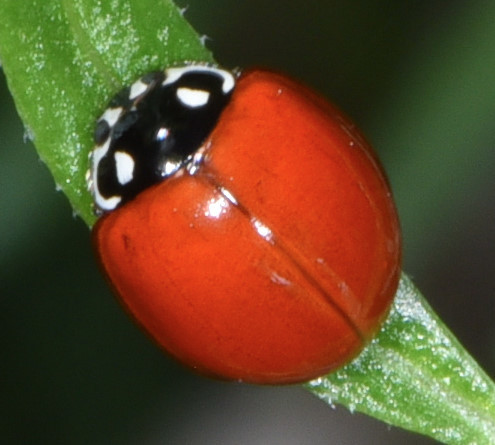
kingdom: Animalia
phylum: Arthropoda
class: Insecta
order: Coleoptera
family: Coccinellidae
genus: Cycloneda
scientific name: Cycloneda sanguinea
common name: Ladybird beetle
